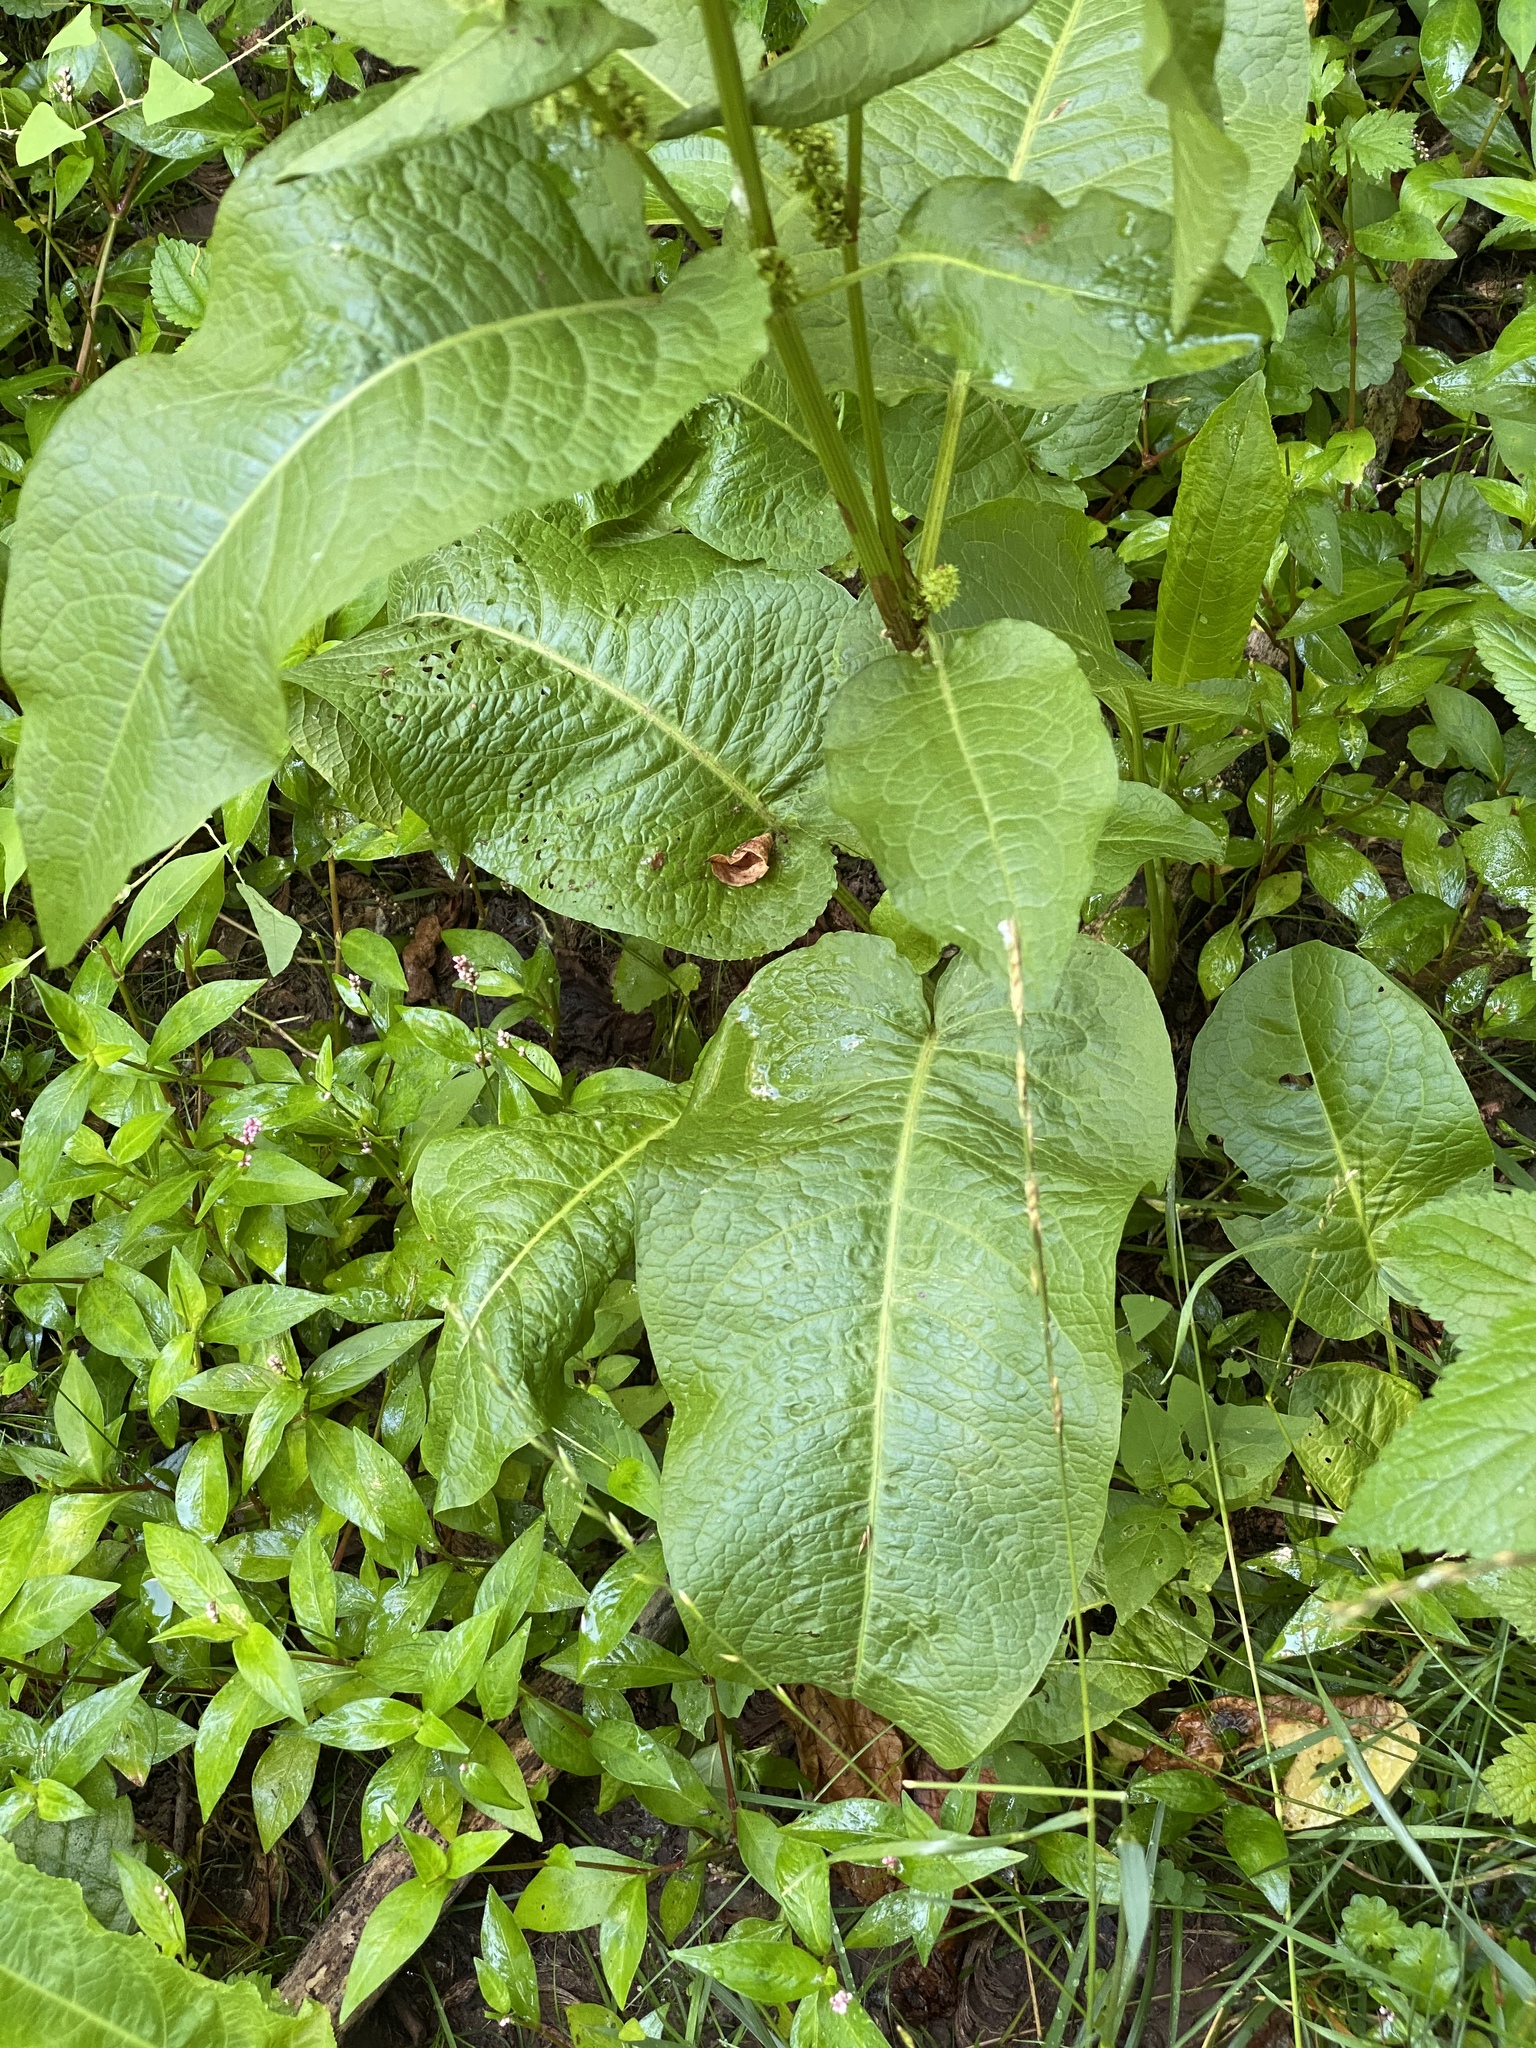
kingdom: Plantae
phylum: Tracheophyta
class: Magnoliopsida
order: Caryophyllales
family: Polygonaceae
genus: Rumex
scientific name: Rumex obtusifolius
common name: Bitter dock
